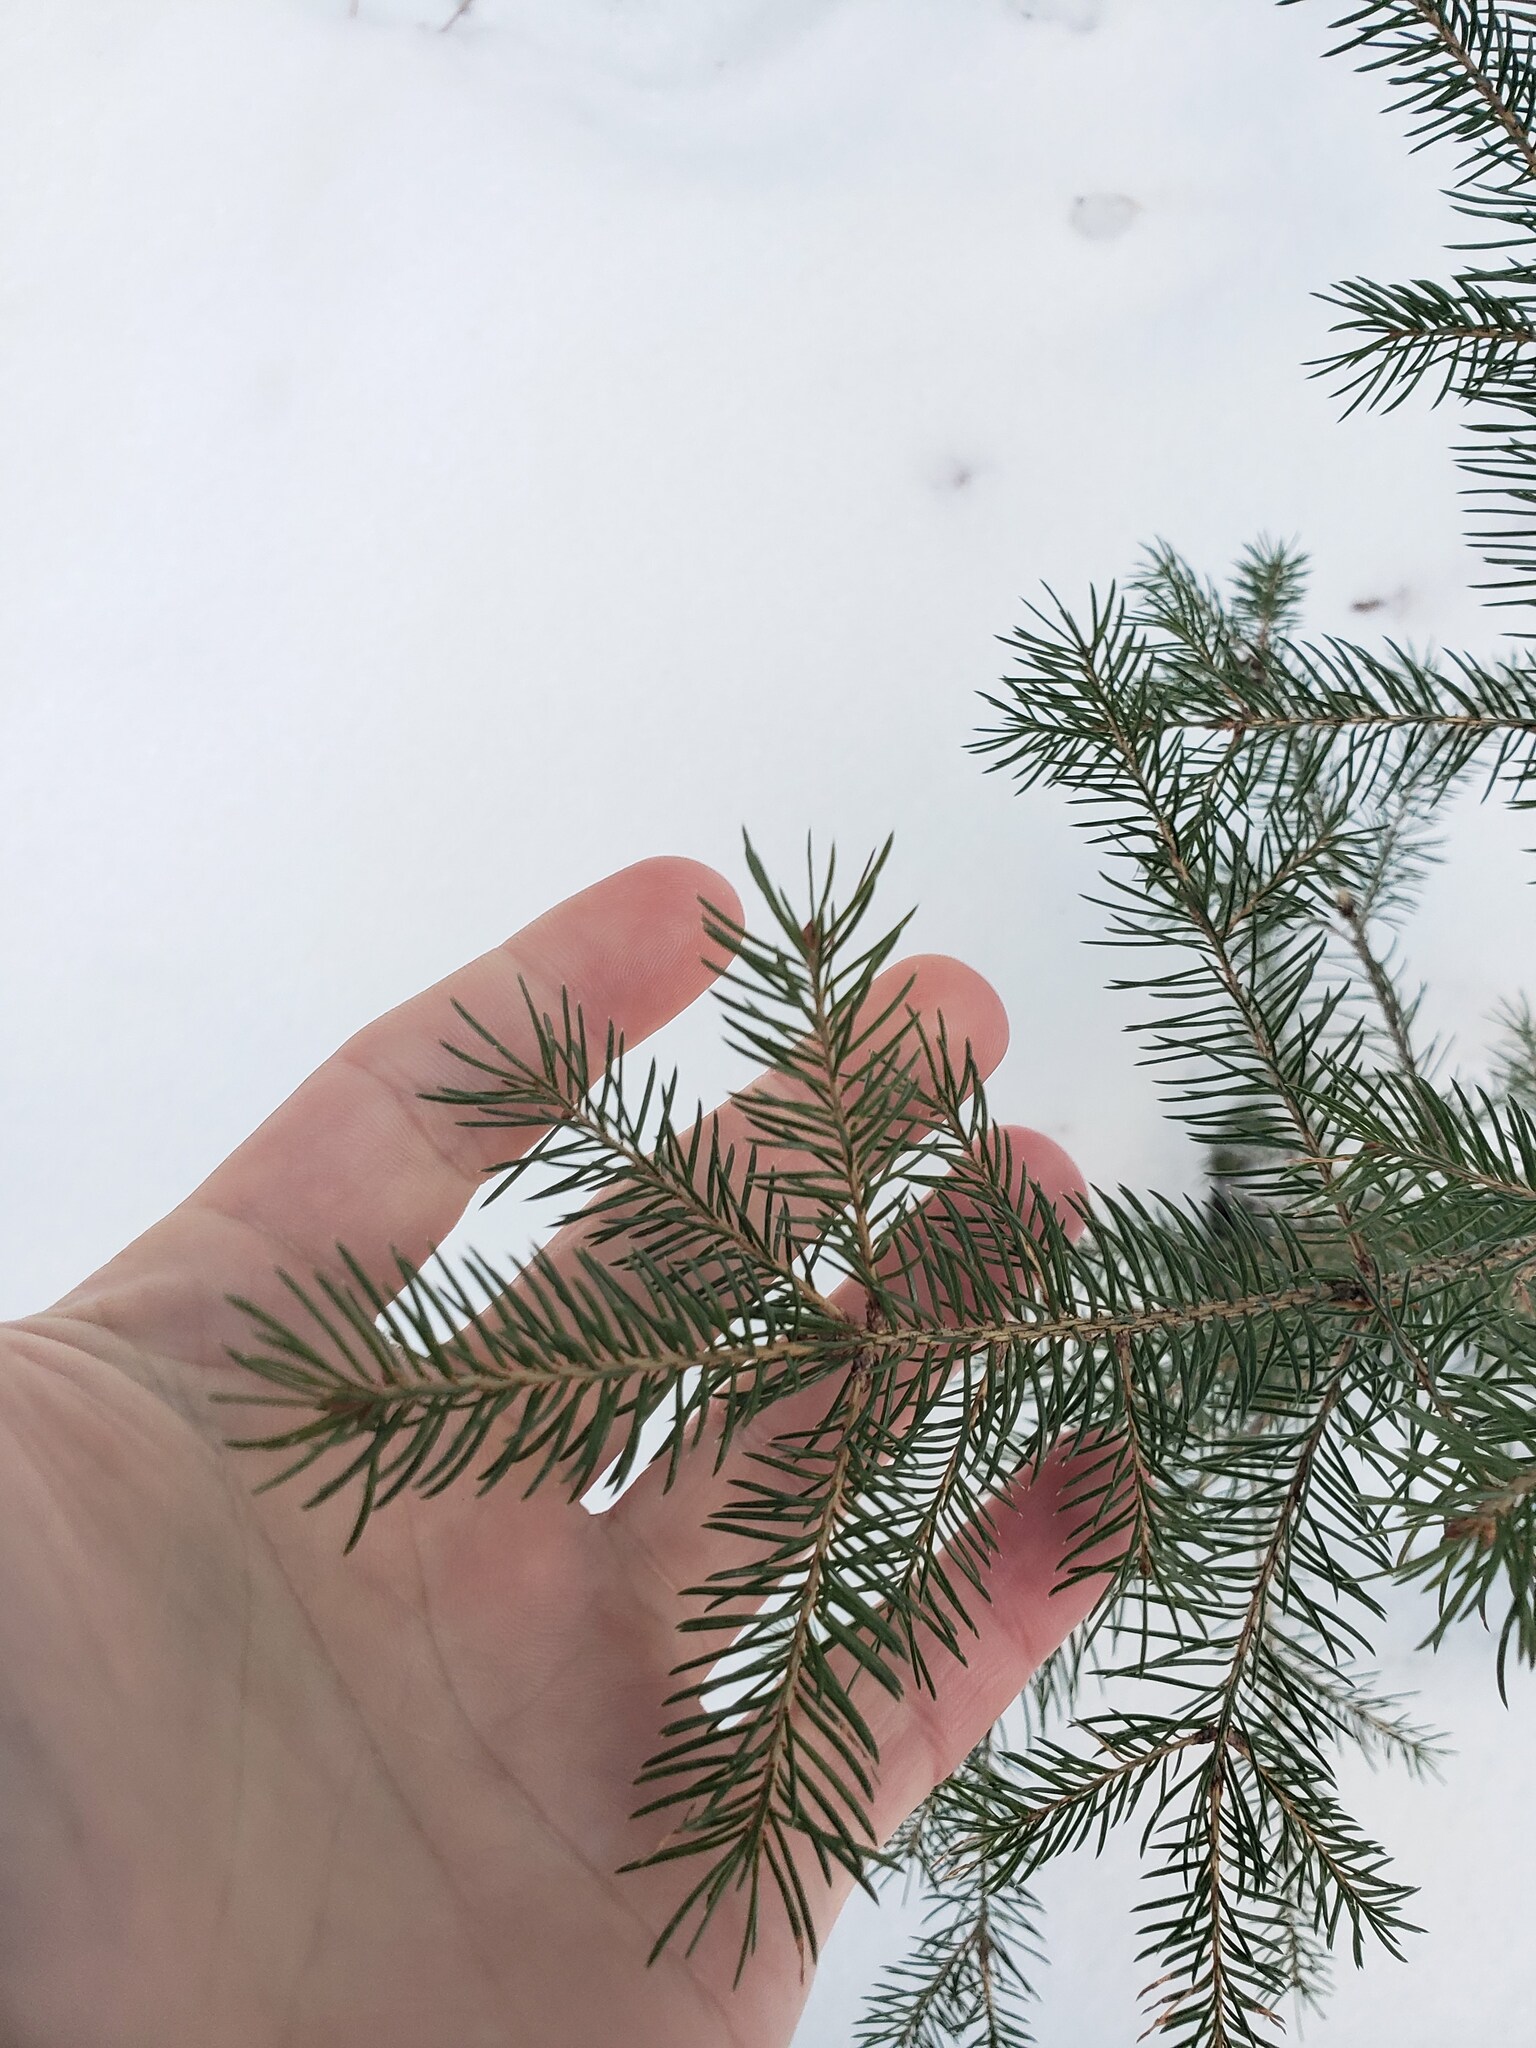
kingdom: Plantae
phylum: Tracheophyta
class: Pinopsida
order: Pinales
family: Pinaceae
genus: Picea
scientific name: Picea glauca
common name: White spruce
